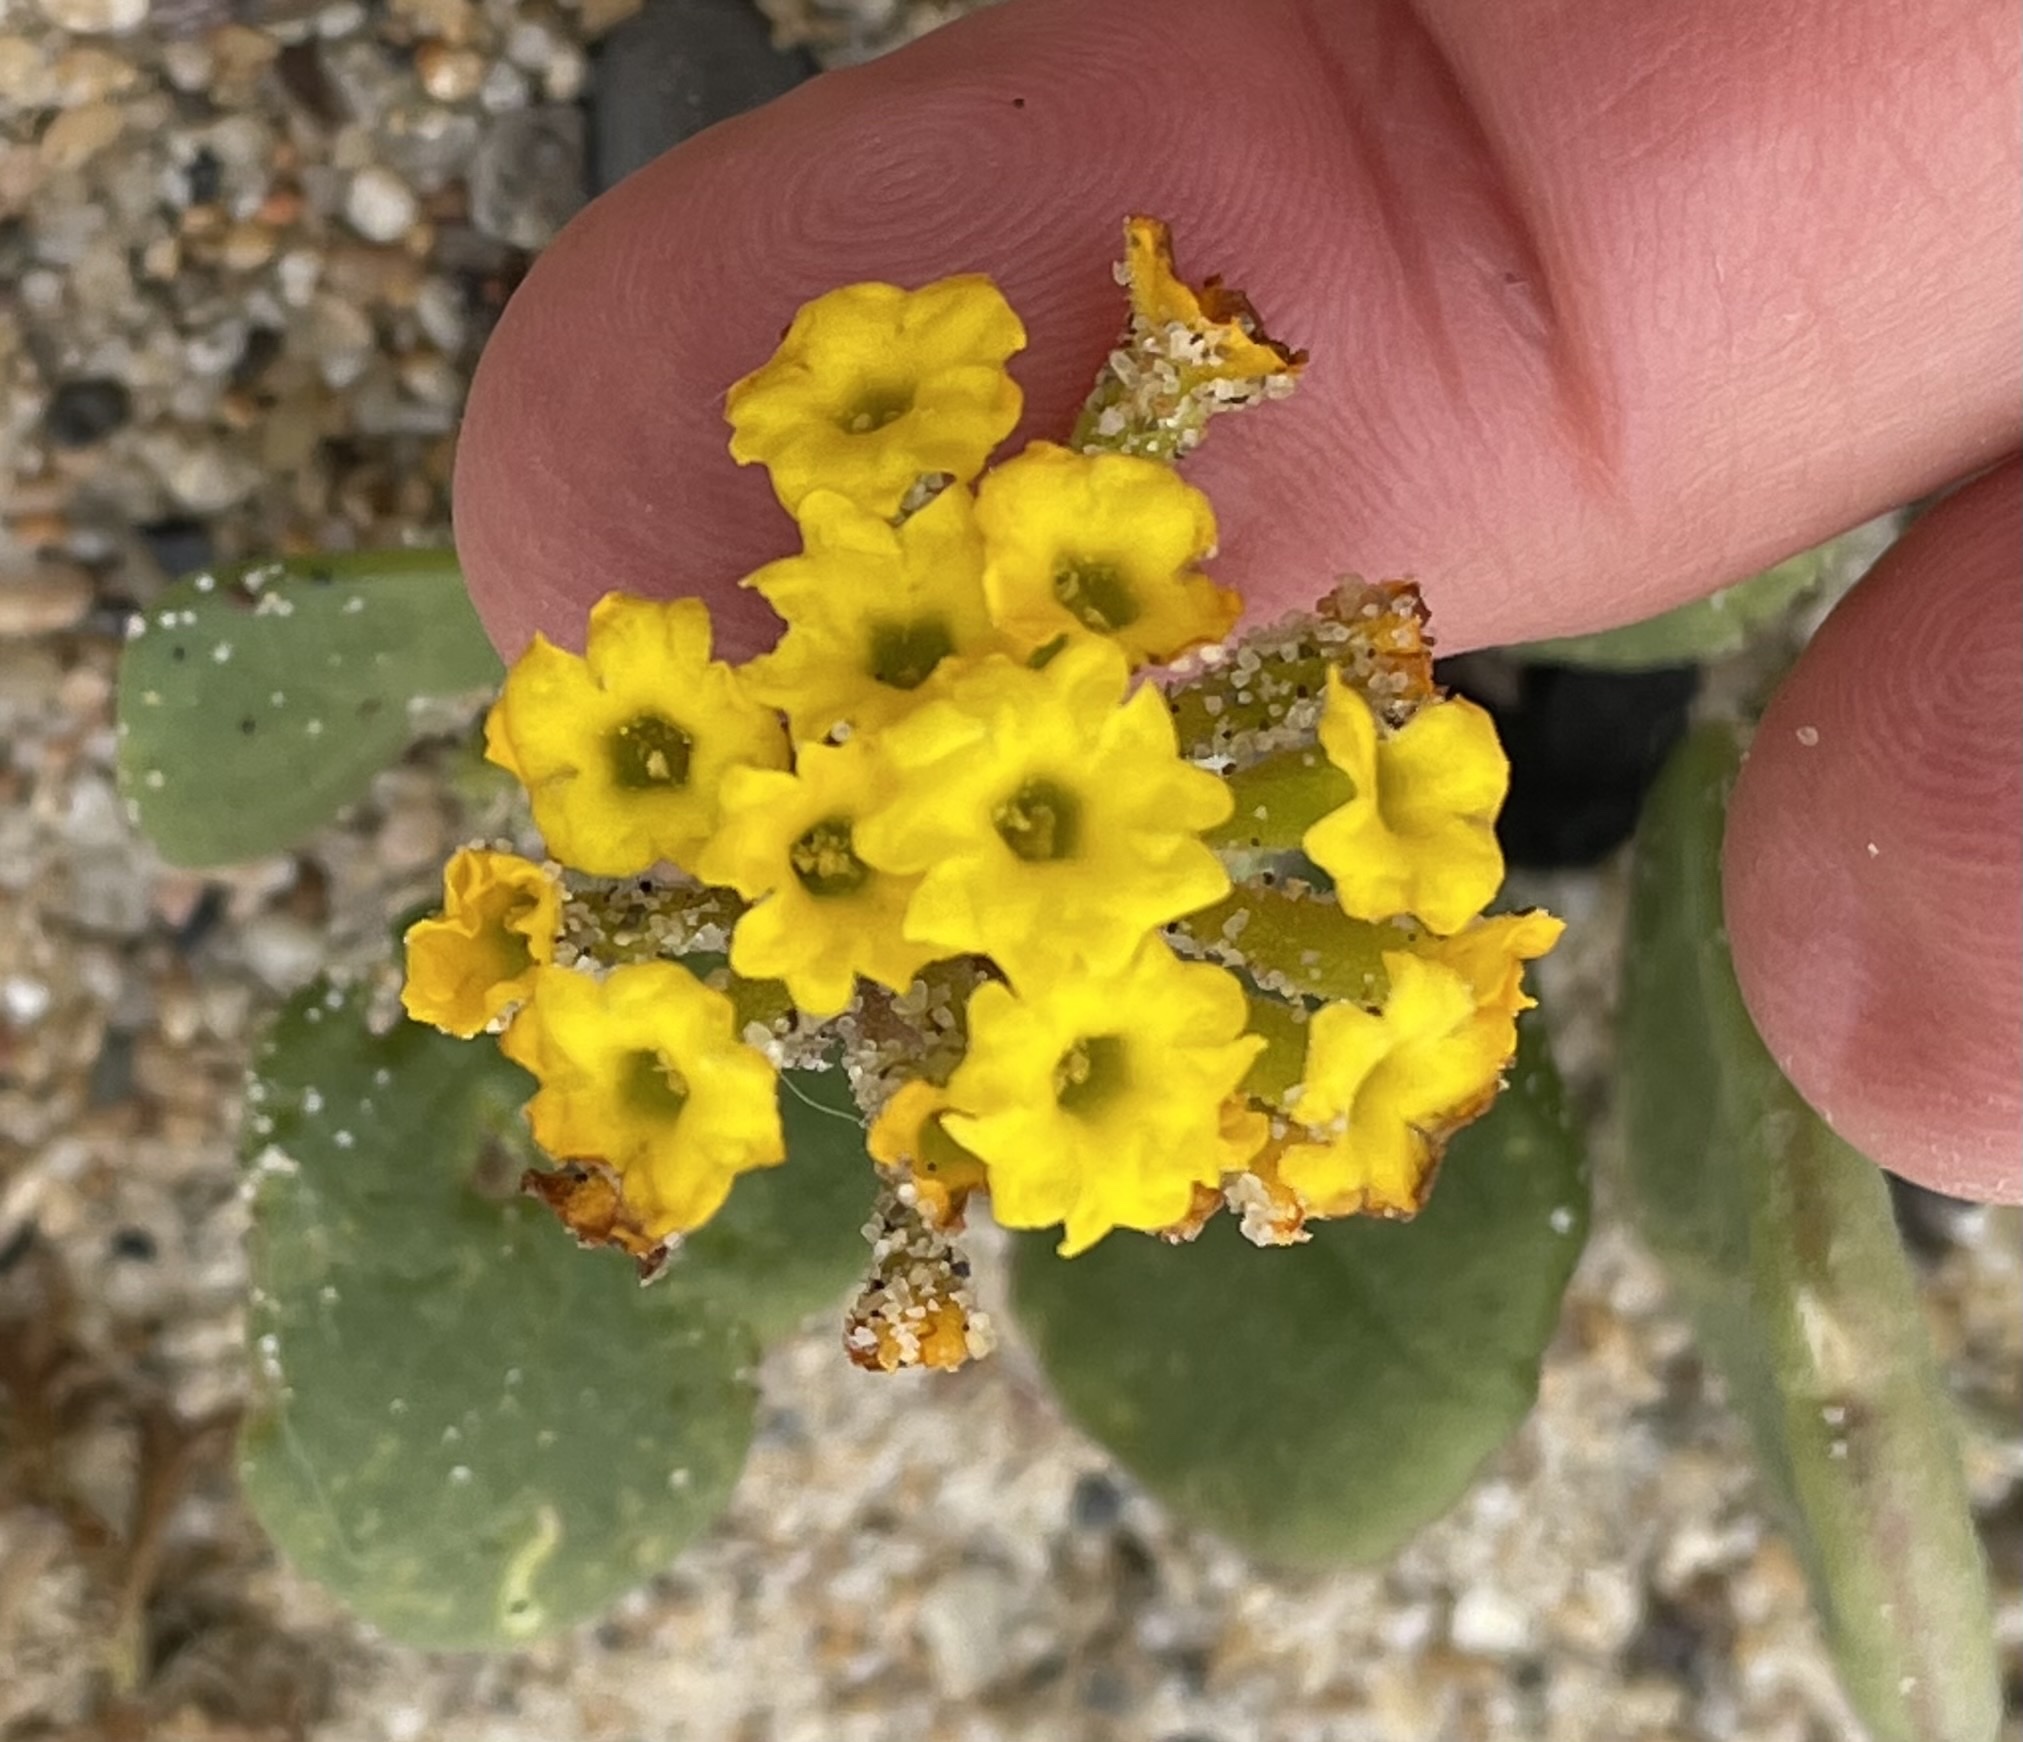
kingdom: Plantae
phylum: Tracheophyta
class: Magnoliopsida
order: Caryophyllales
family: Nyctaginaceae
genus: Abronia
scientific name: Abronia latifolia
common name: Yellow sand-verbena
